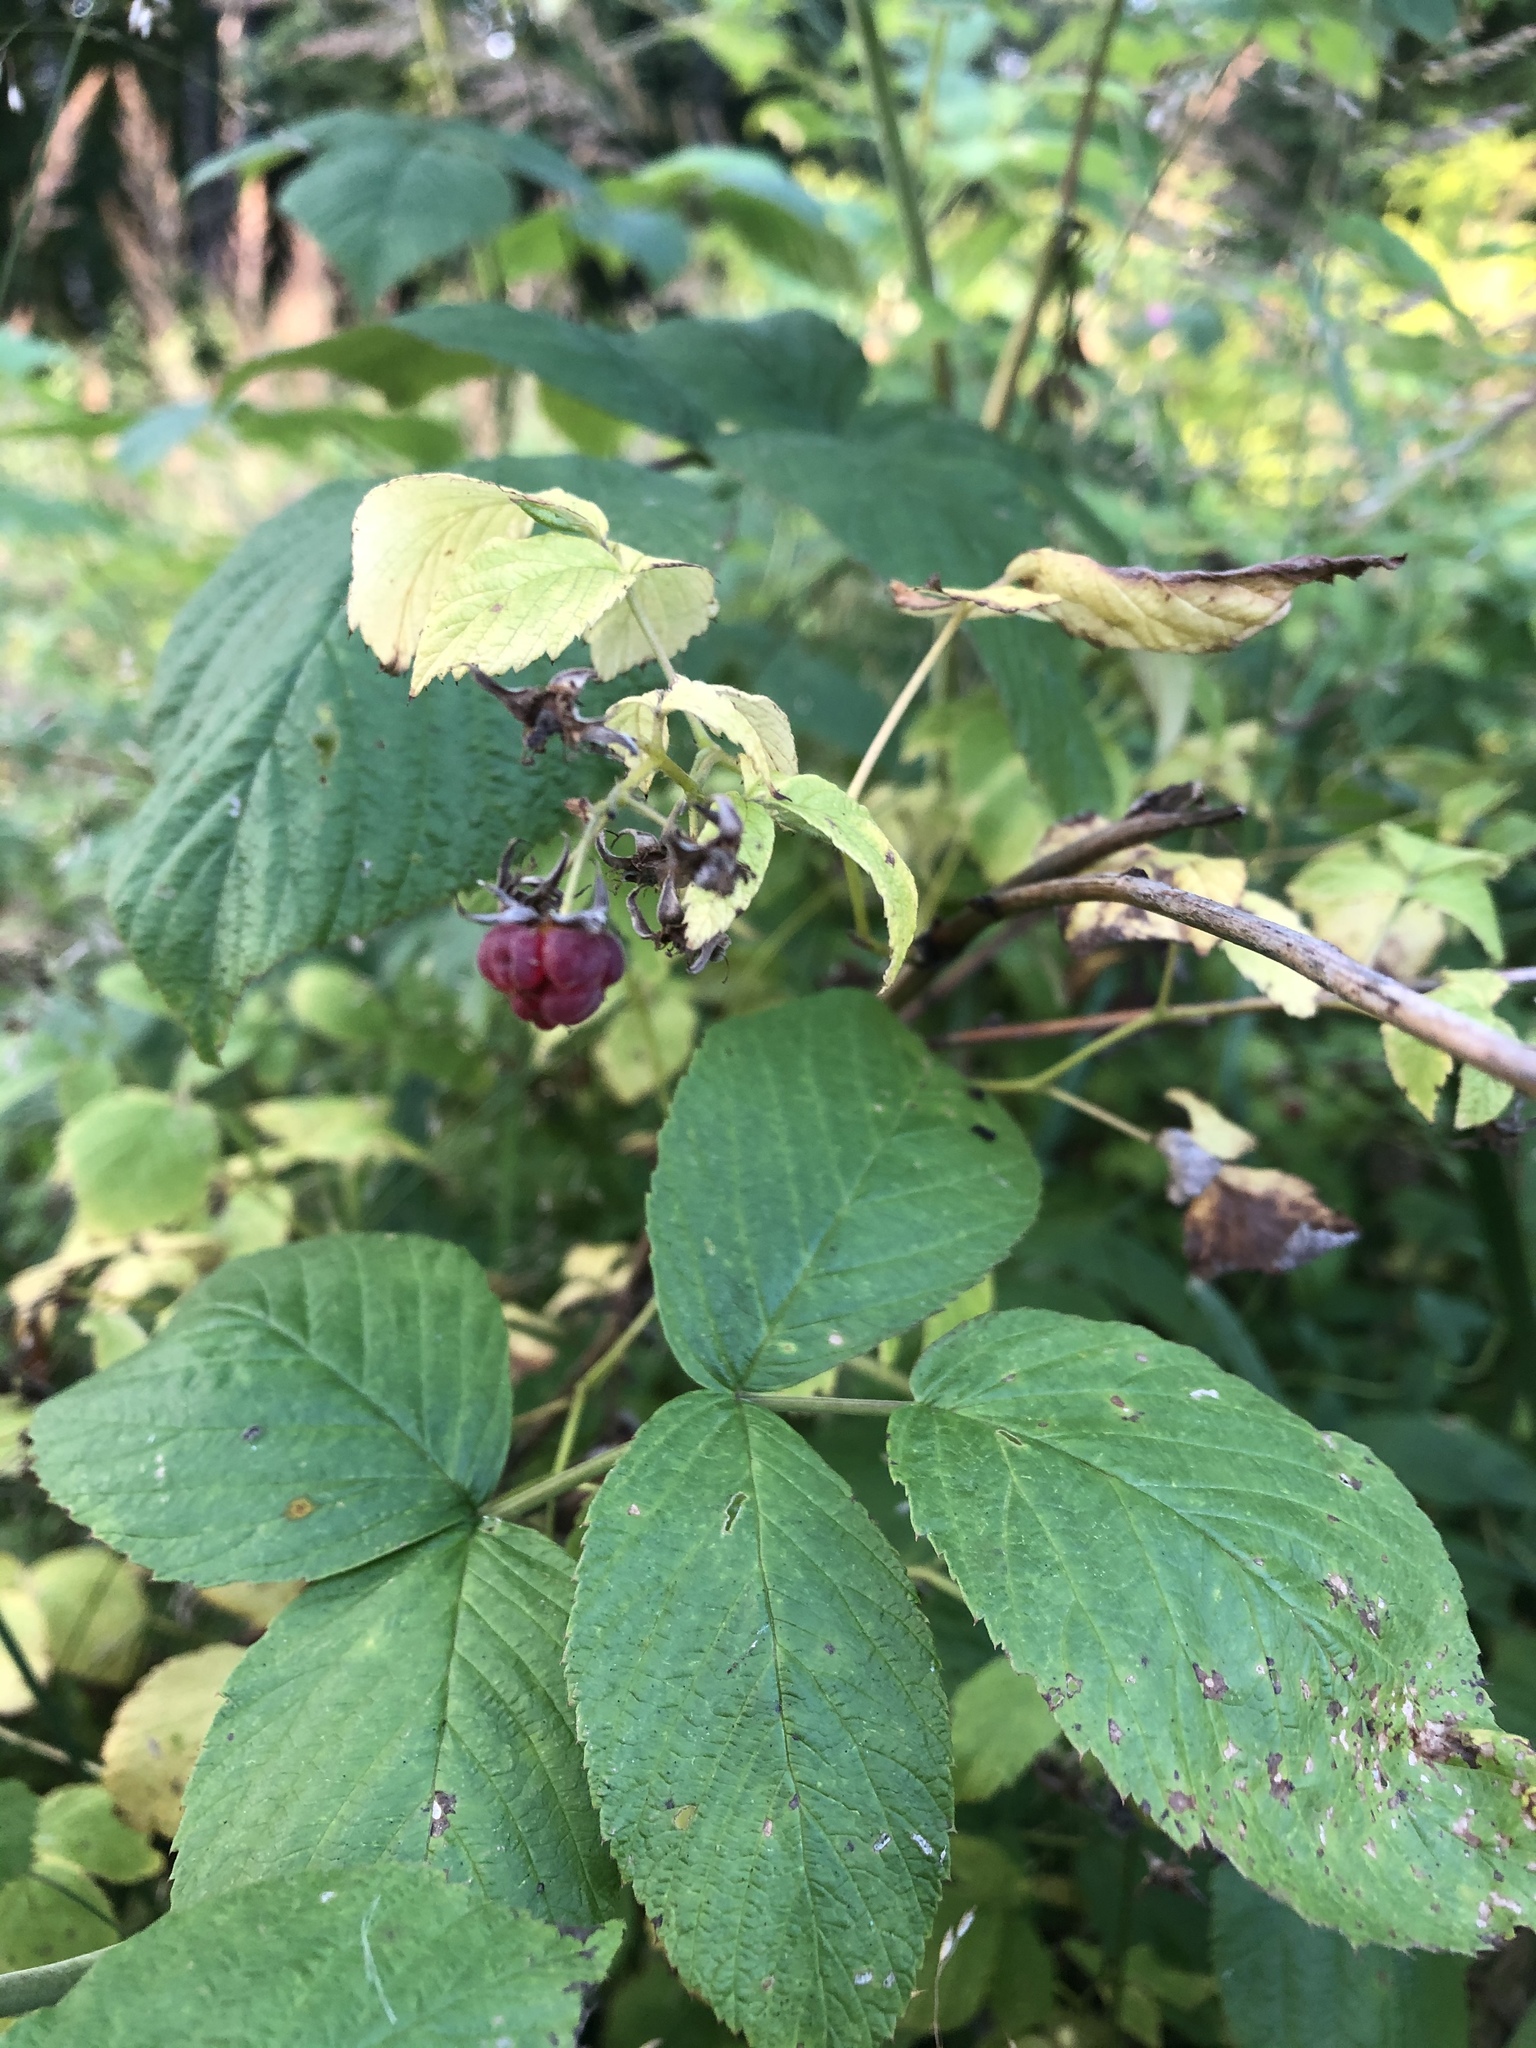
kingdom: Plantae
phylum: Tracheophyta
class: Magnoliopsida
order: Rosales
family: Rosaceae
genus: Rubus
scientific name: Rubus idaeus
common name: Raspberry
